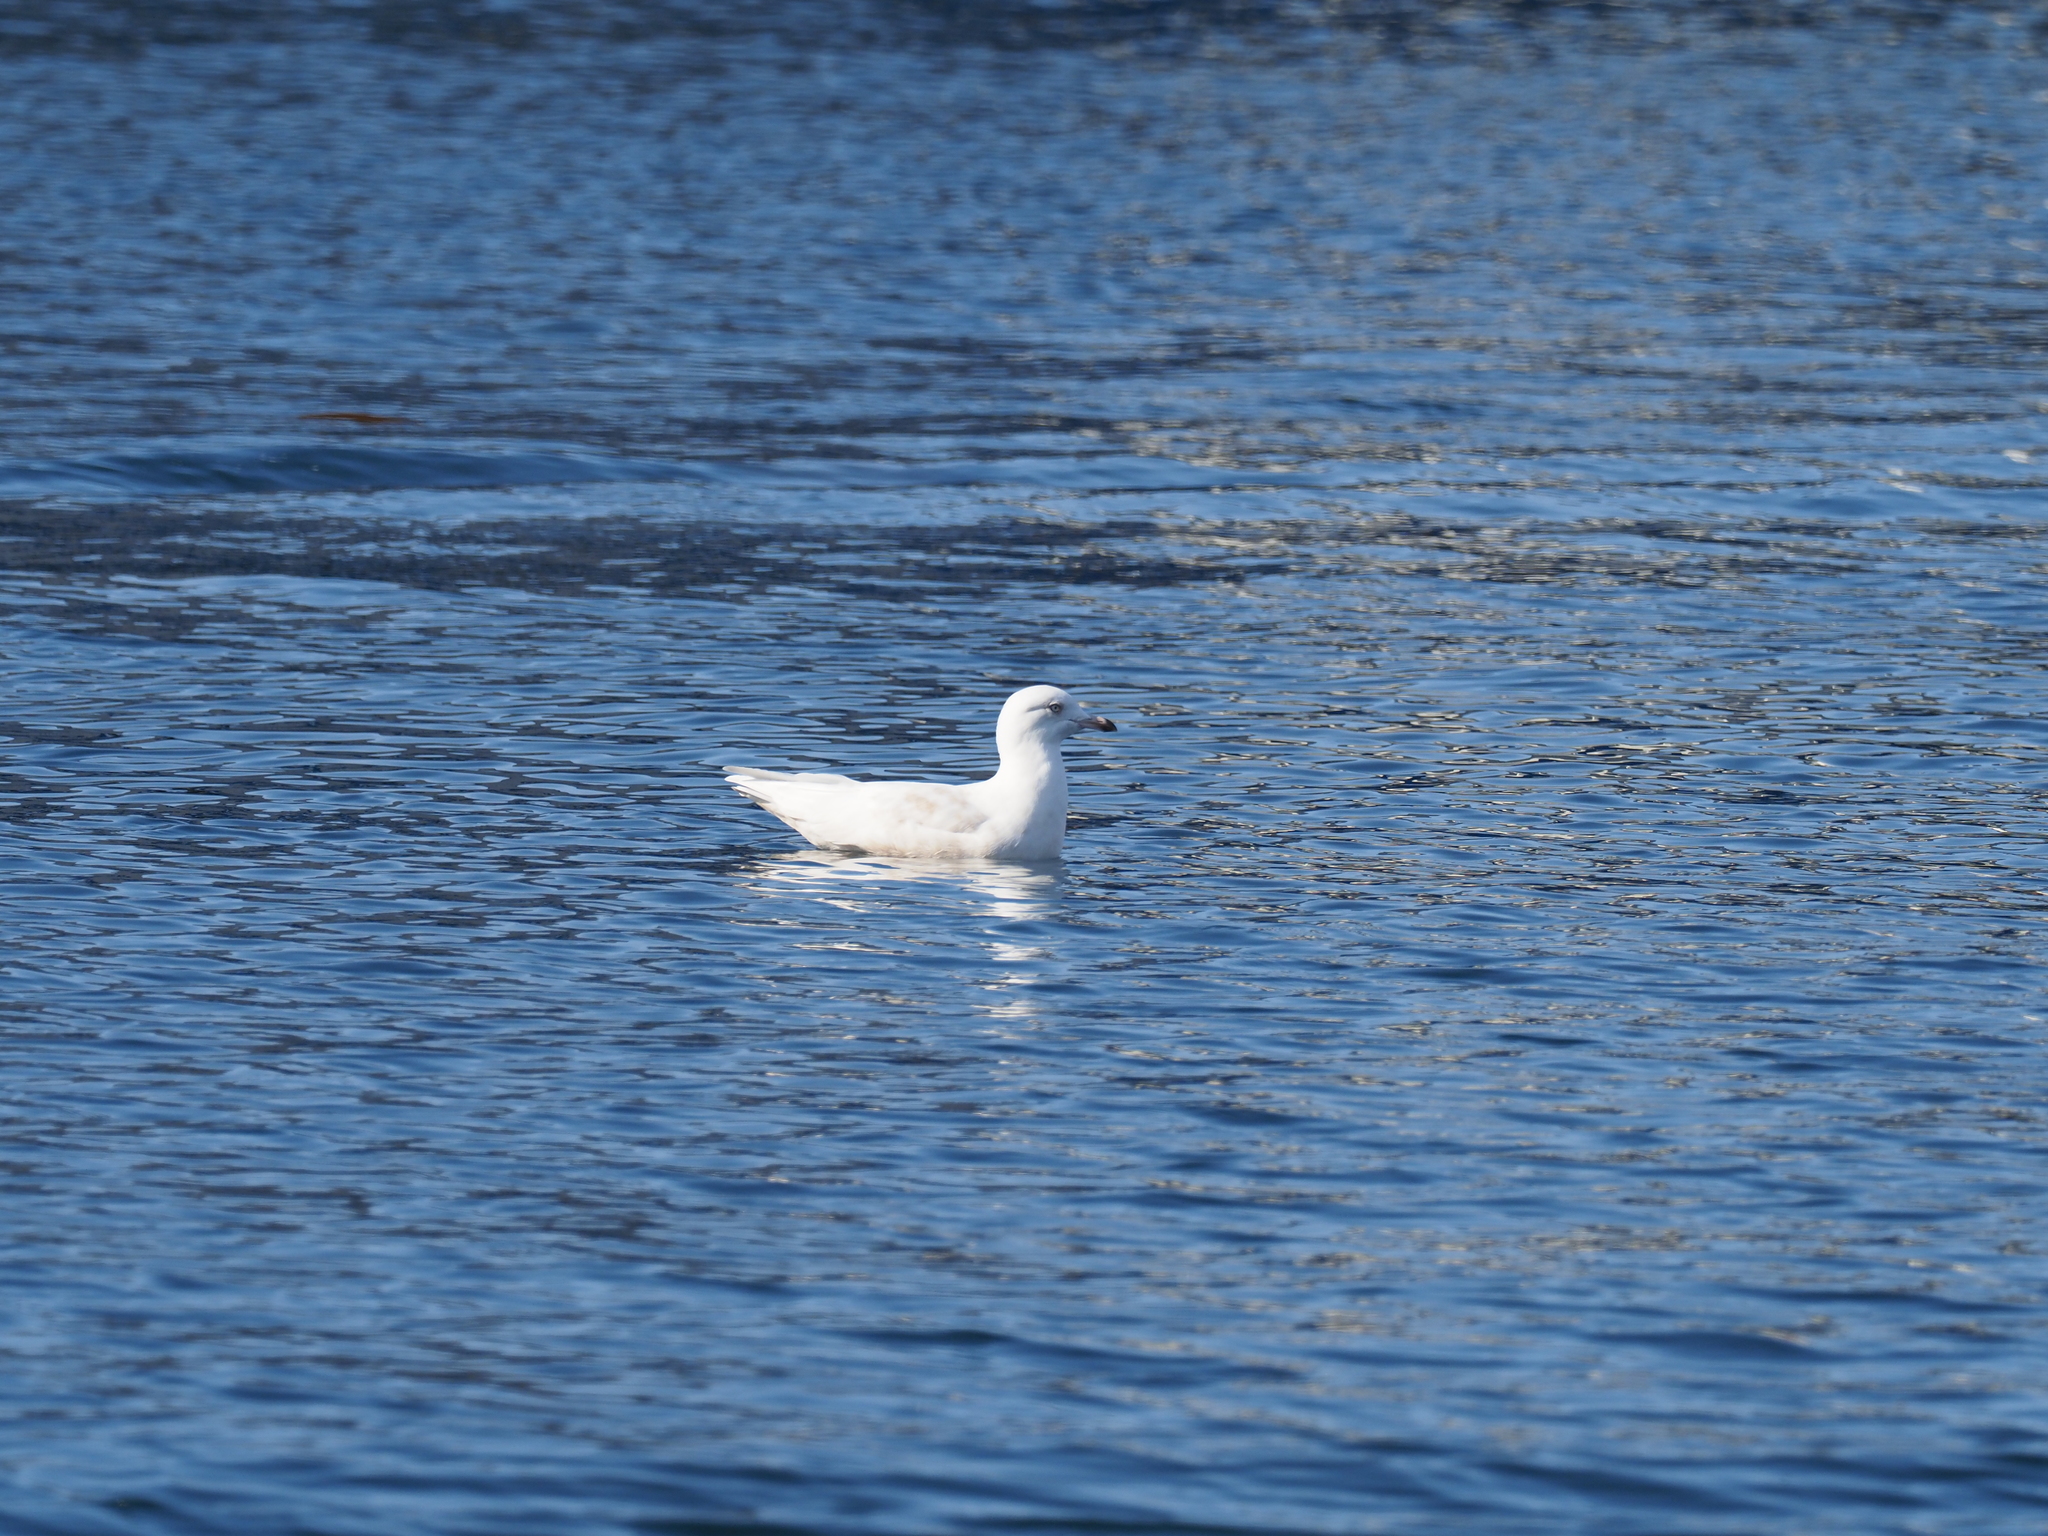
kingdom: Animalia
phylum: Chordata
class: Aves
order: Charadriiformes
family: Laridae
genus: Larus
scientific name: Larus glaucoides
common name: Iceland gull
